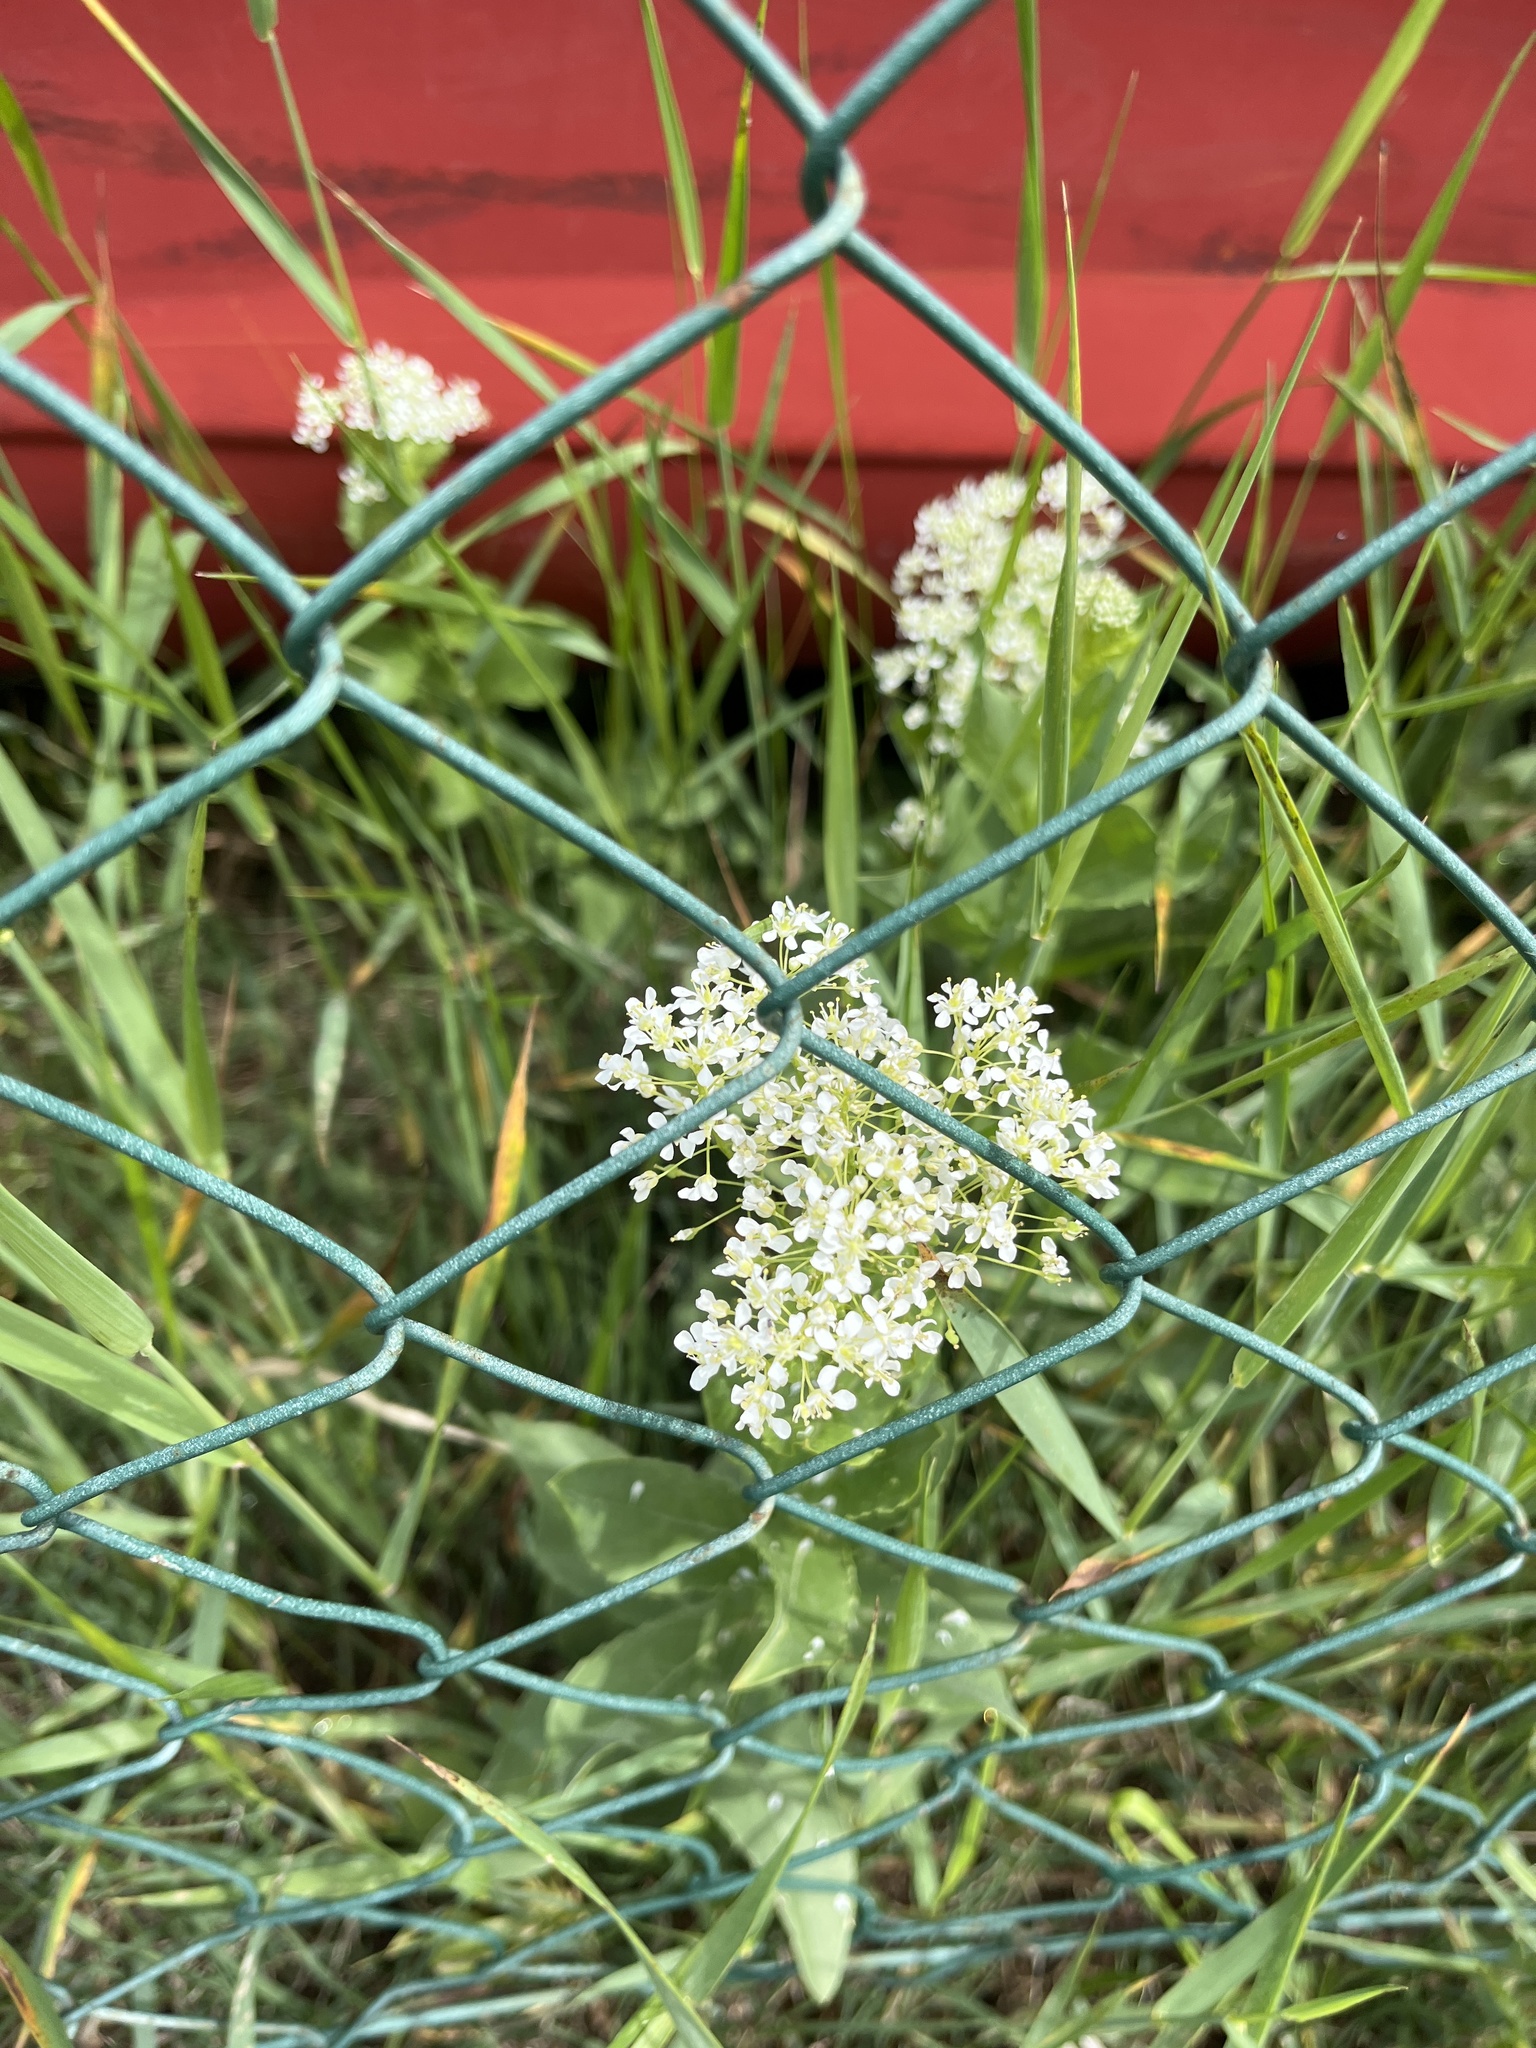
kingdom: Plantae
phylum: Tracheophyta
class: Magnoliopsida
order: Brassicales
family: Brassicaceae
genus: Lepidium
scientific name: Lepidium draba
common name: Hoary cress
